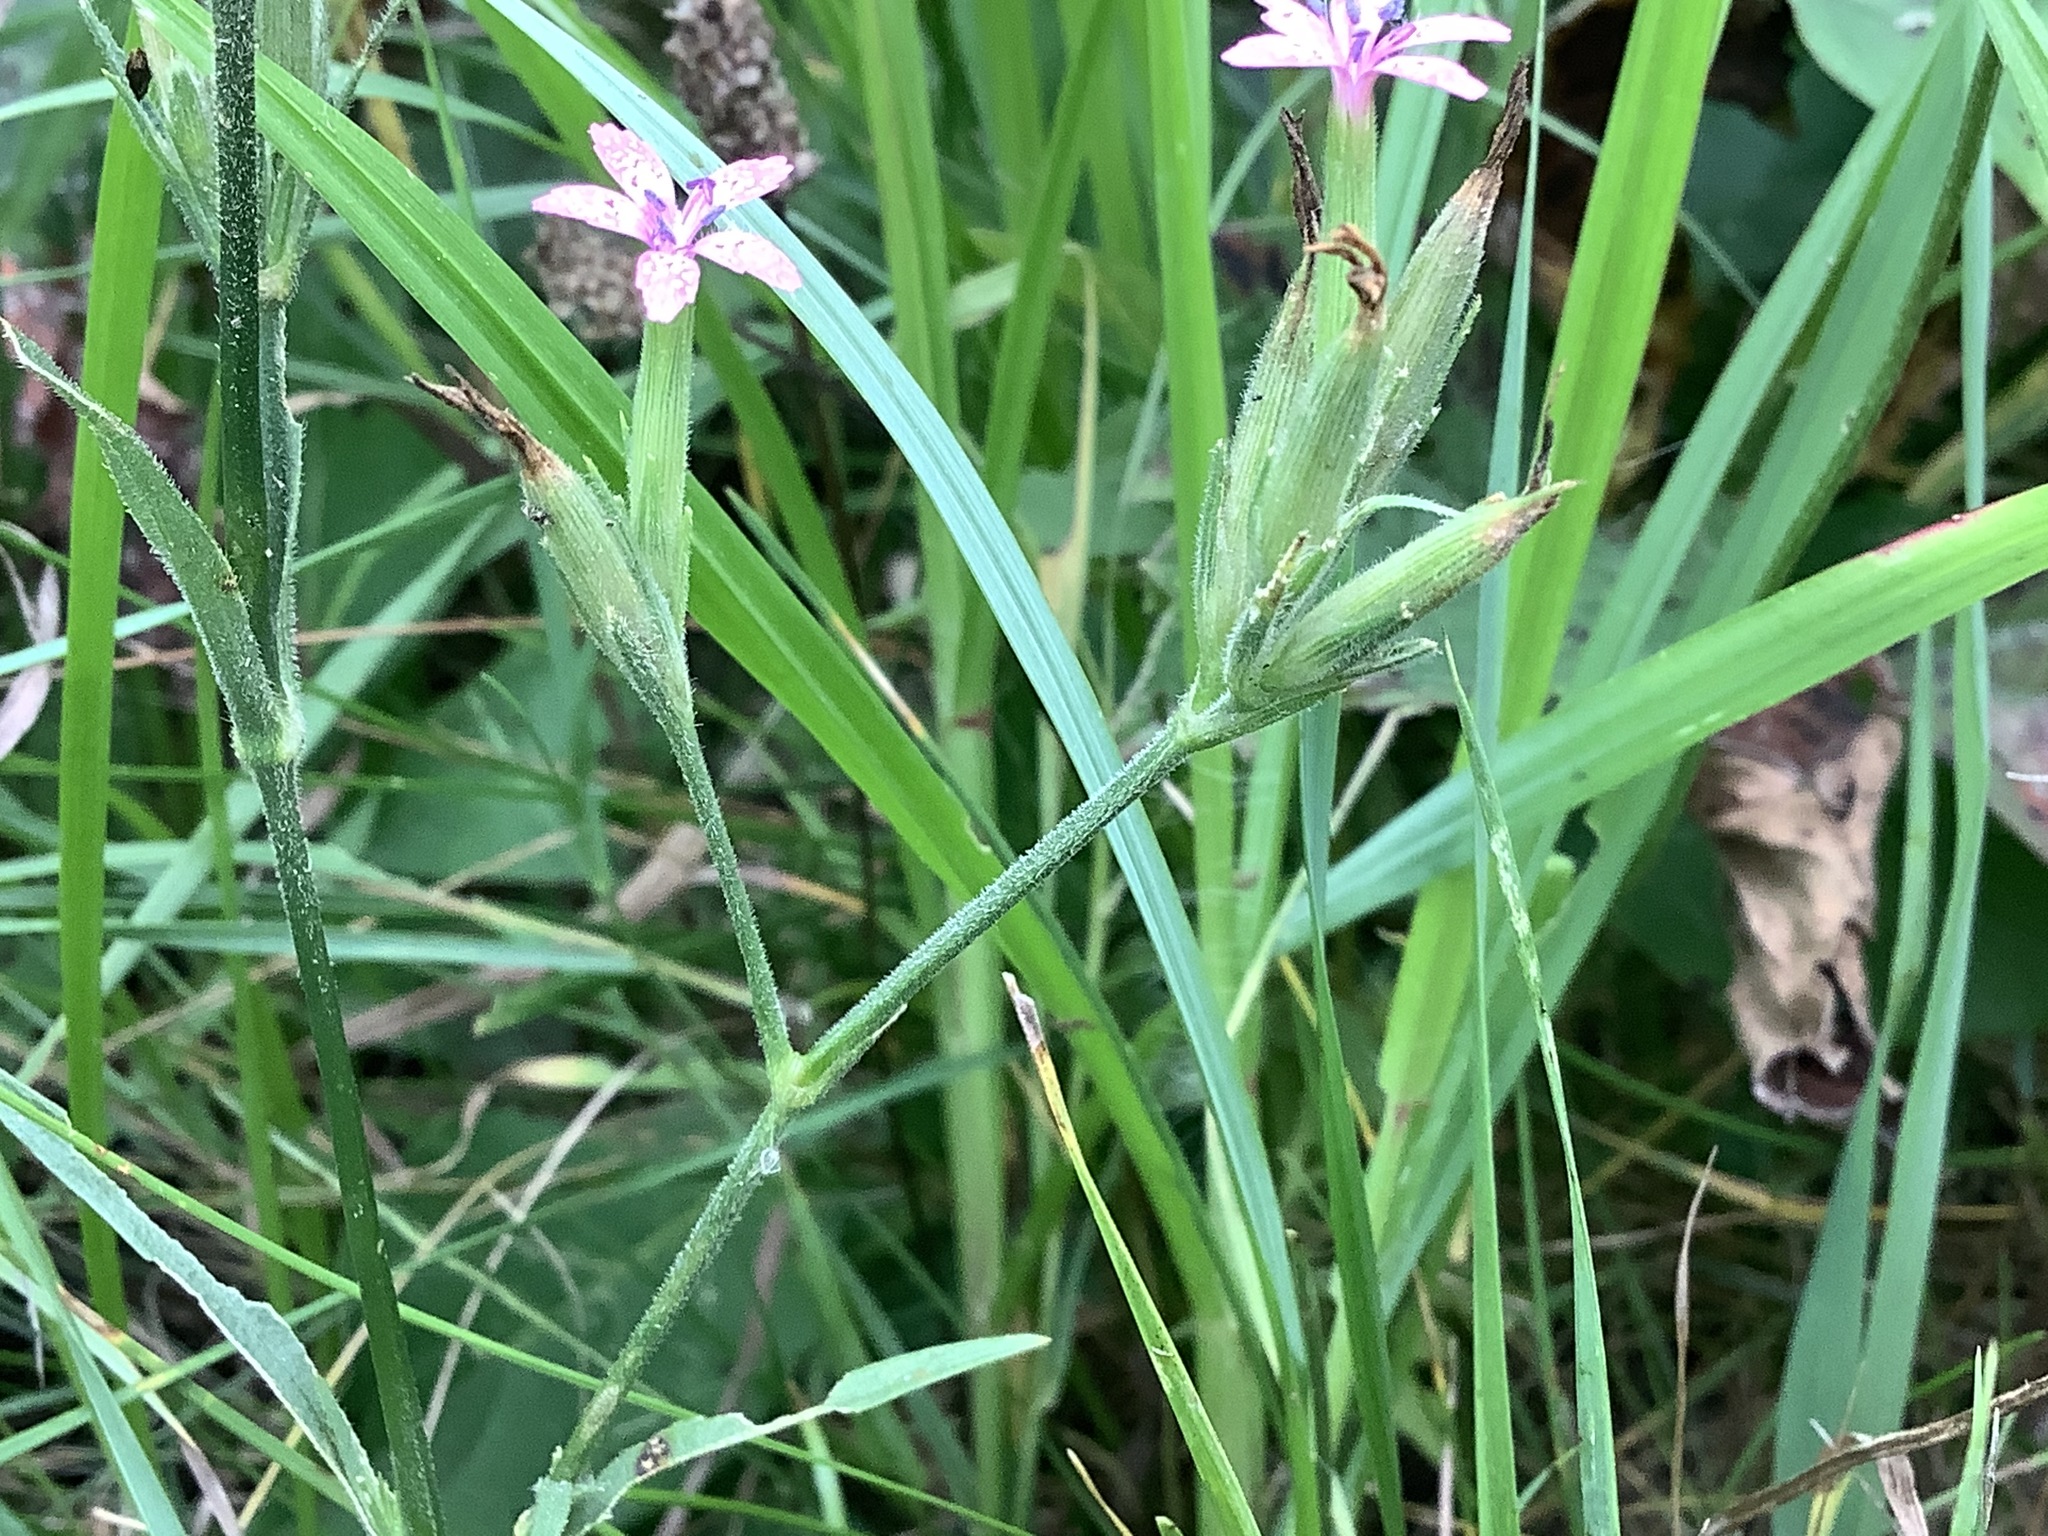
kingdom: Plantae
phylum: Tracheophyta
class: Magnoliopsida
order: Caryophyllales
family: Caryophyllaceae
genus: Dianthus
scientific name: Dianthus armeria
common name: Deptford pink
